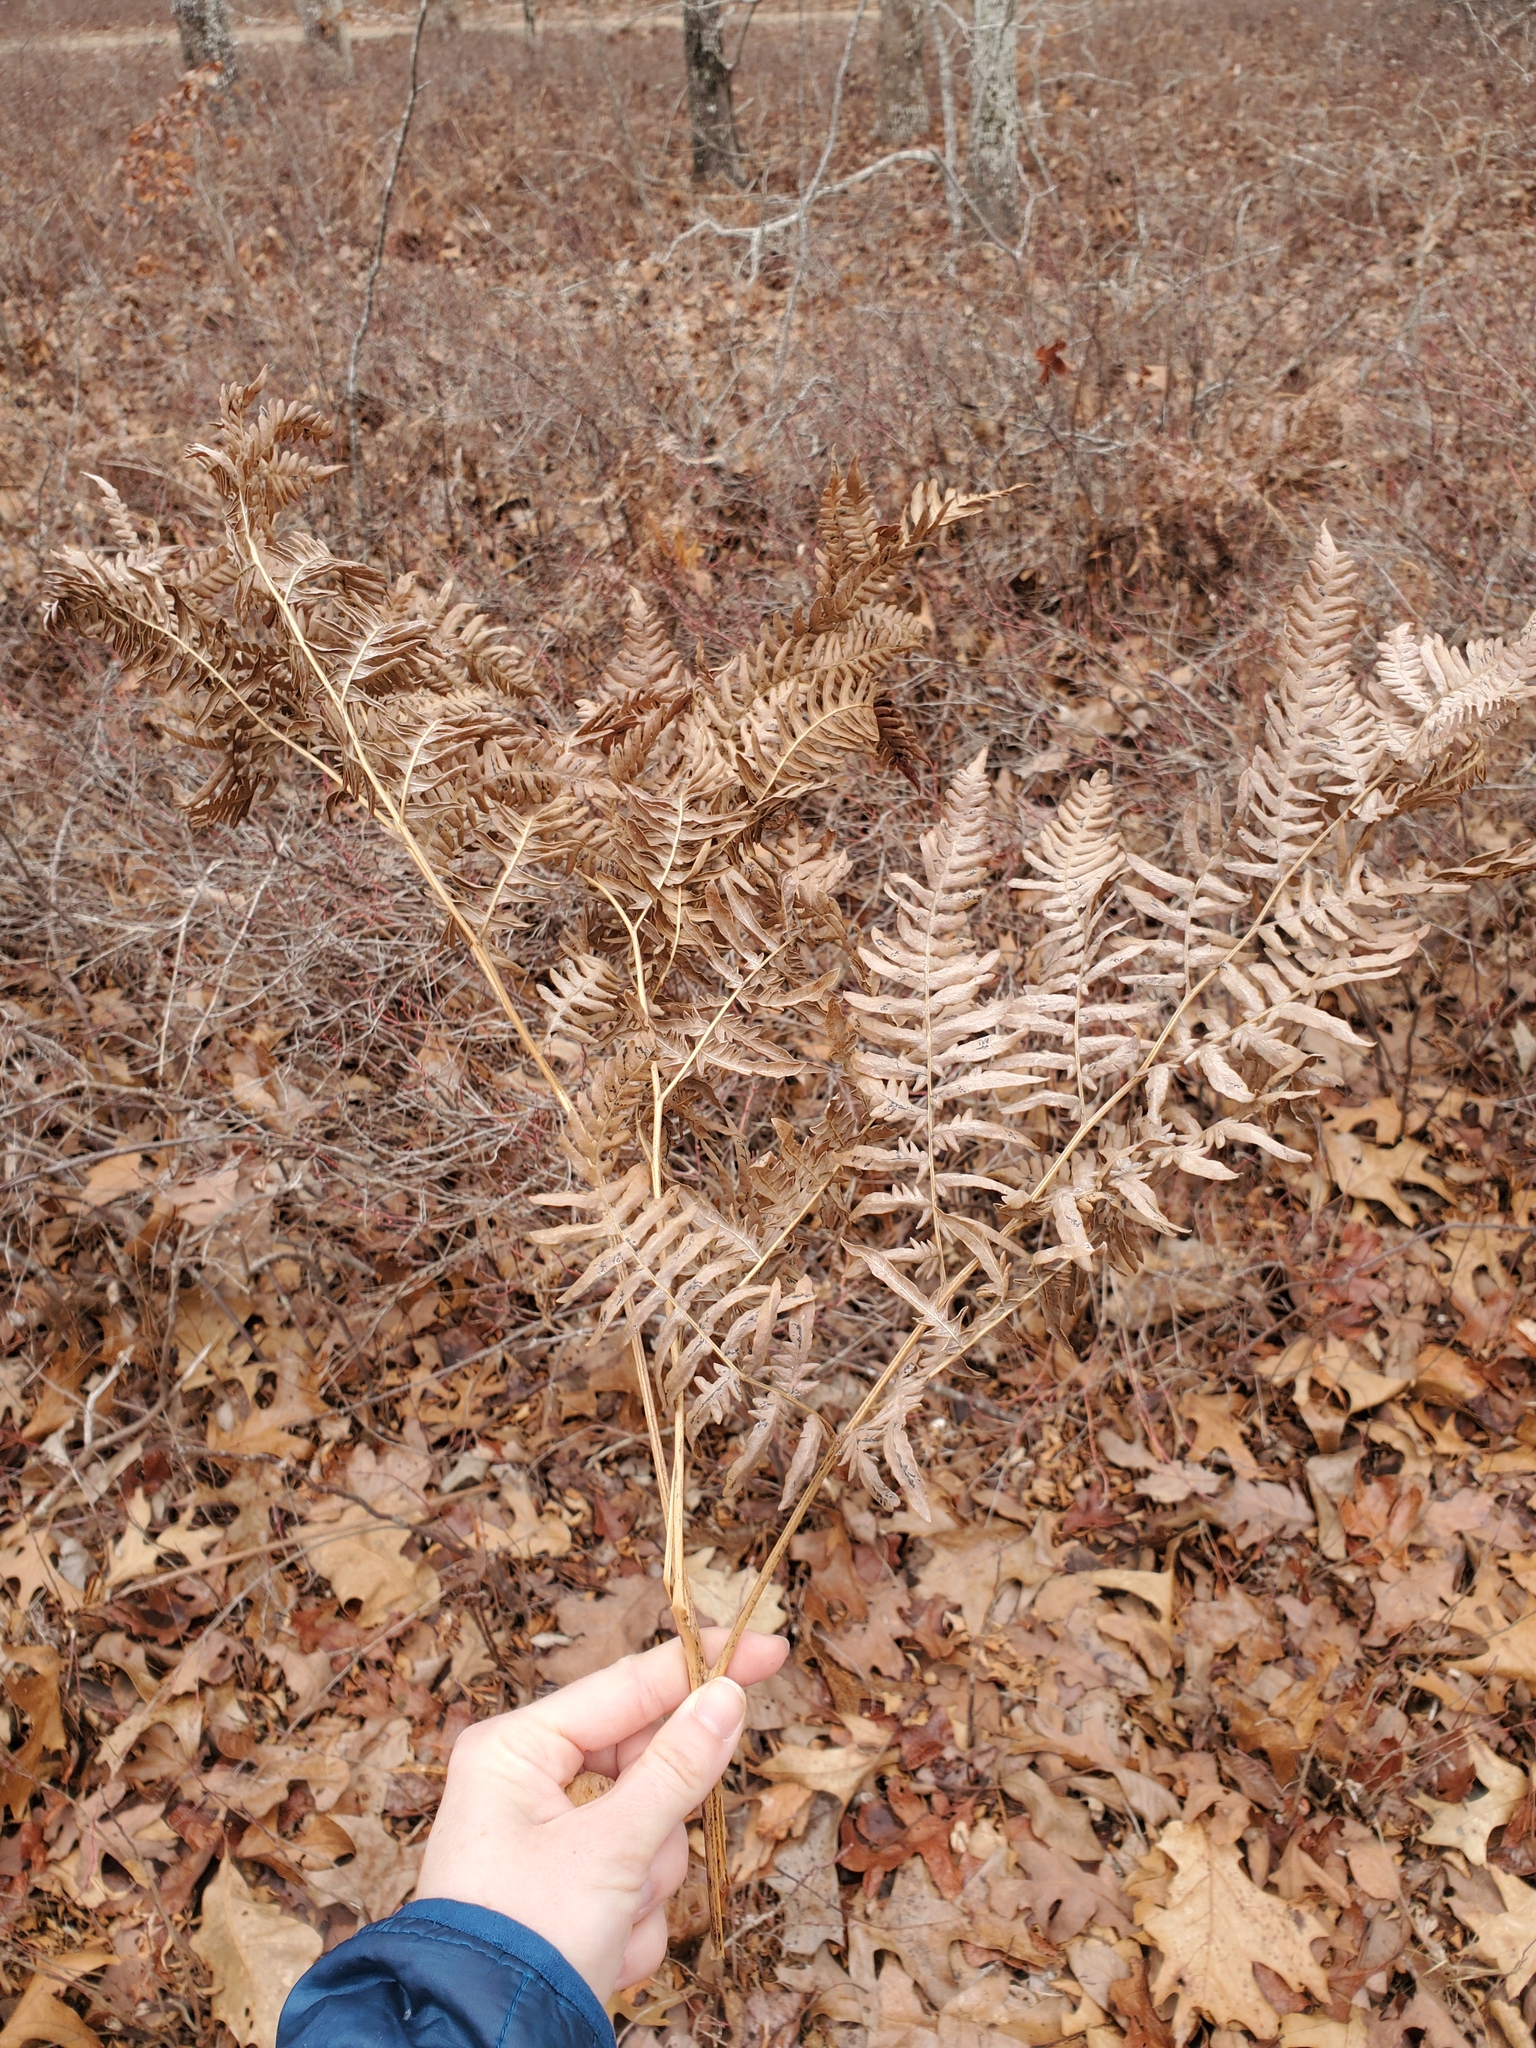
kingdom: Plantae
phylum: Tracheophyta
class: Polypodiopsida
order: Polypodiales
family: Dennstaedtiaceae
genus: Pteridium
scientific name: Pteridium aquilinum
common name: Bracken
